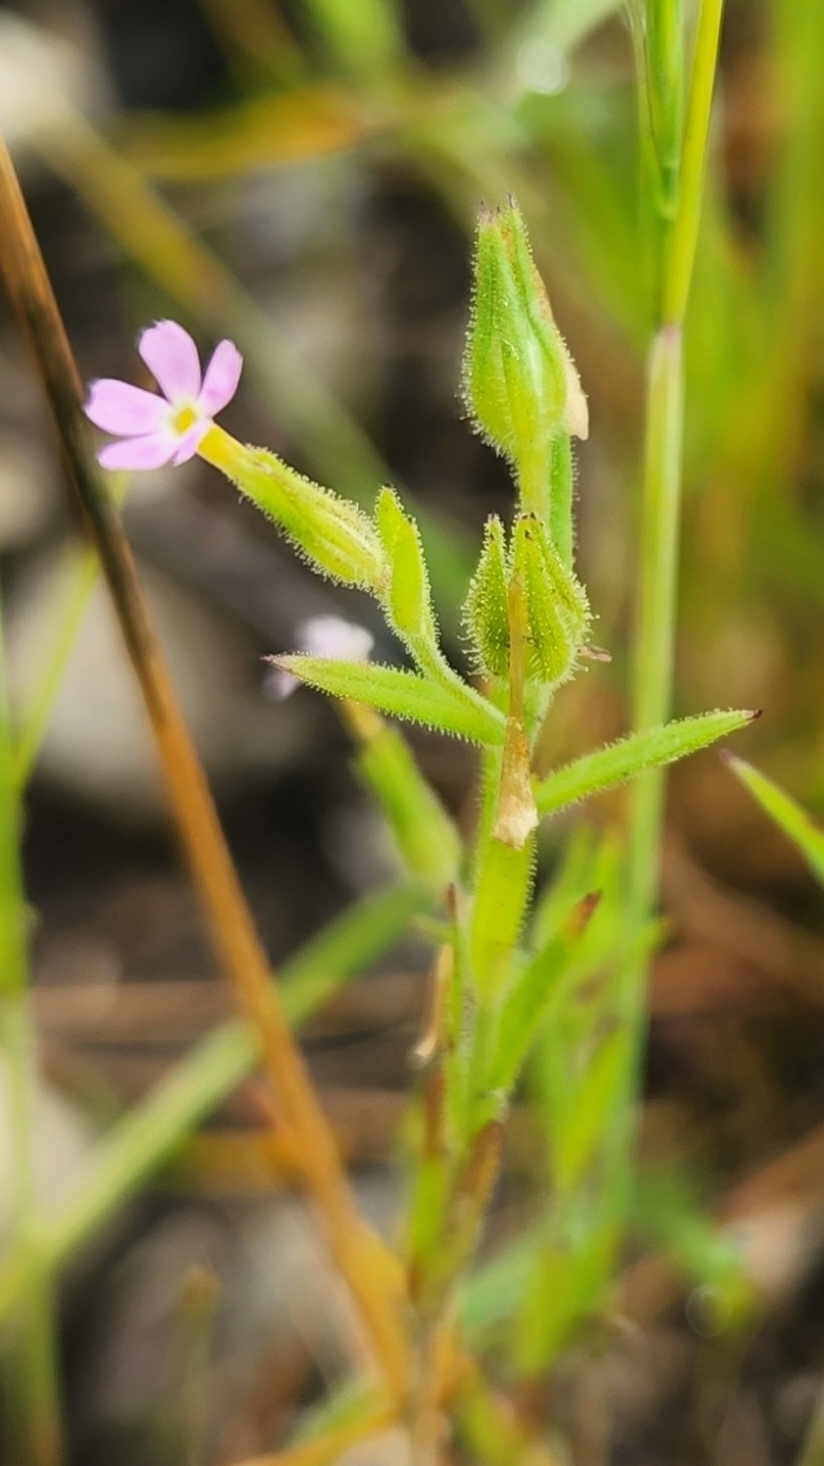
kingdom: Plantae
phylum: Tracheophyta
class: Magnoliopsida
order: Ericales
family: Polemoniaceae
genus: Phlox
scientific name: Phlox gracilis
